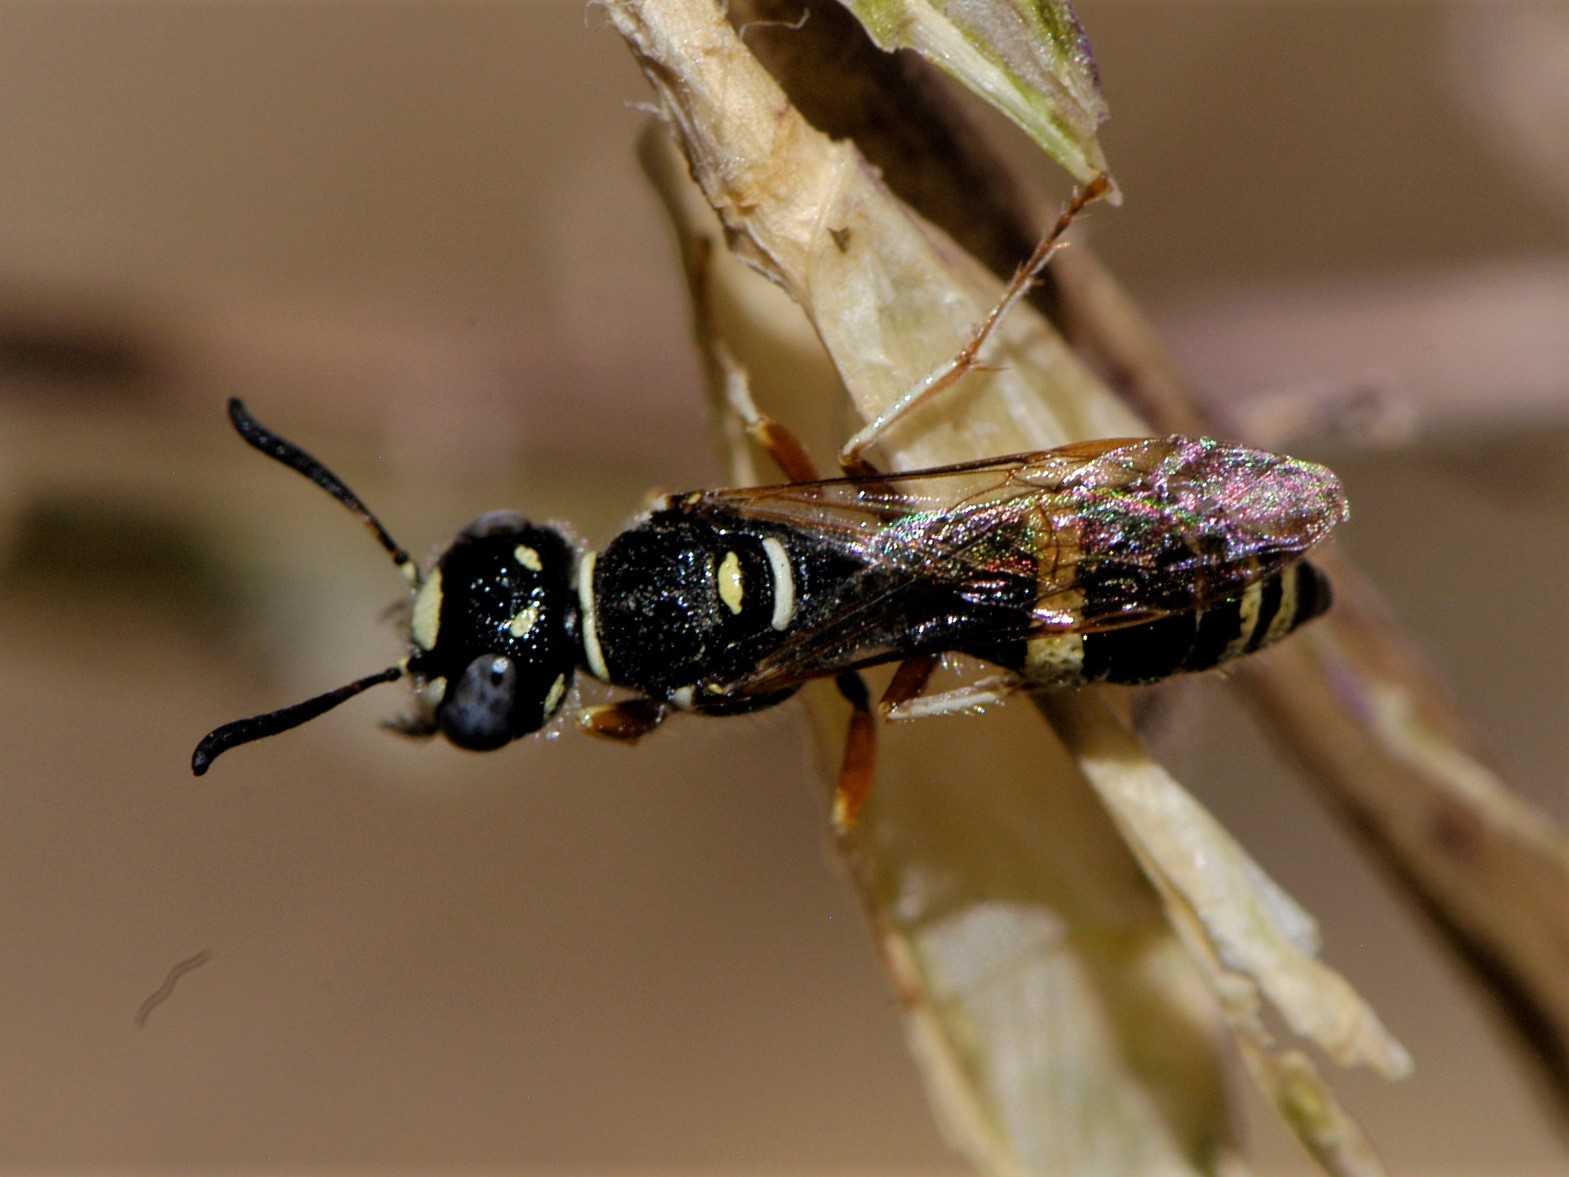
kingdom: Animalia
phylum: Arthropoda
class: Insecta
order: Hymenoptera
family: Crabronidae
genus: Philanthus
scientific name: Philanthus gibbosus
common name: Humped beewolf
